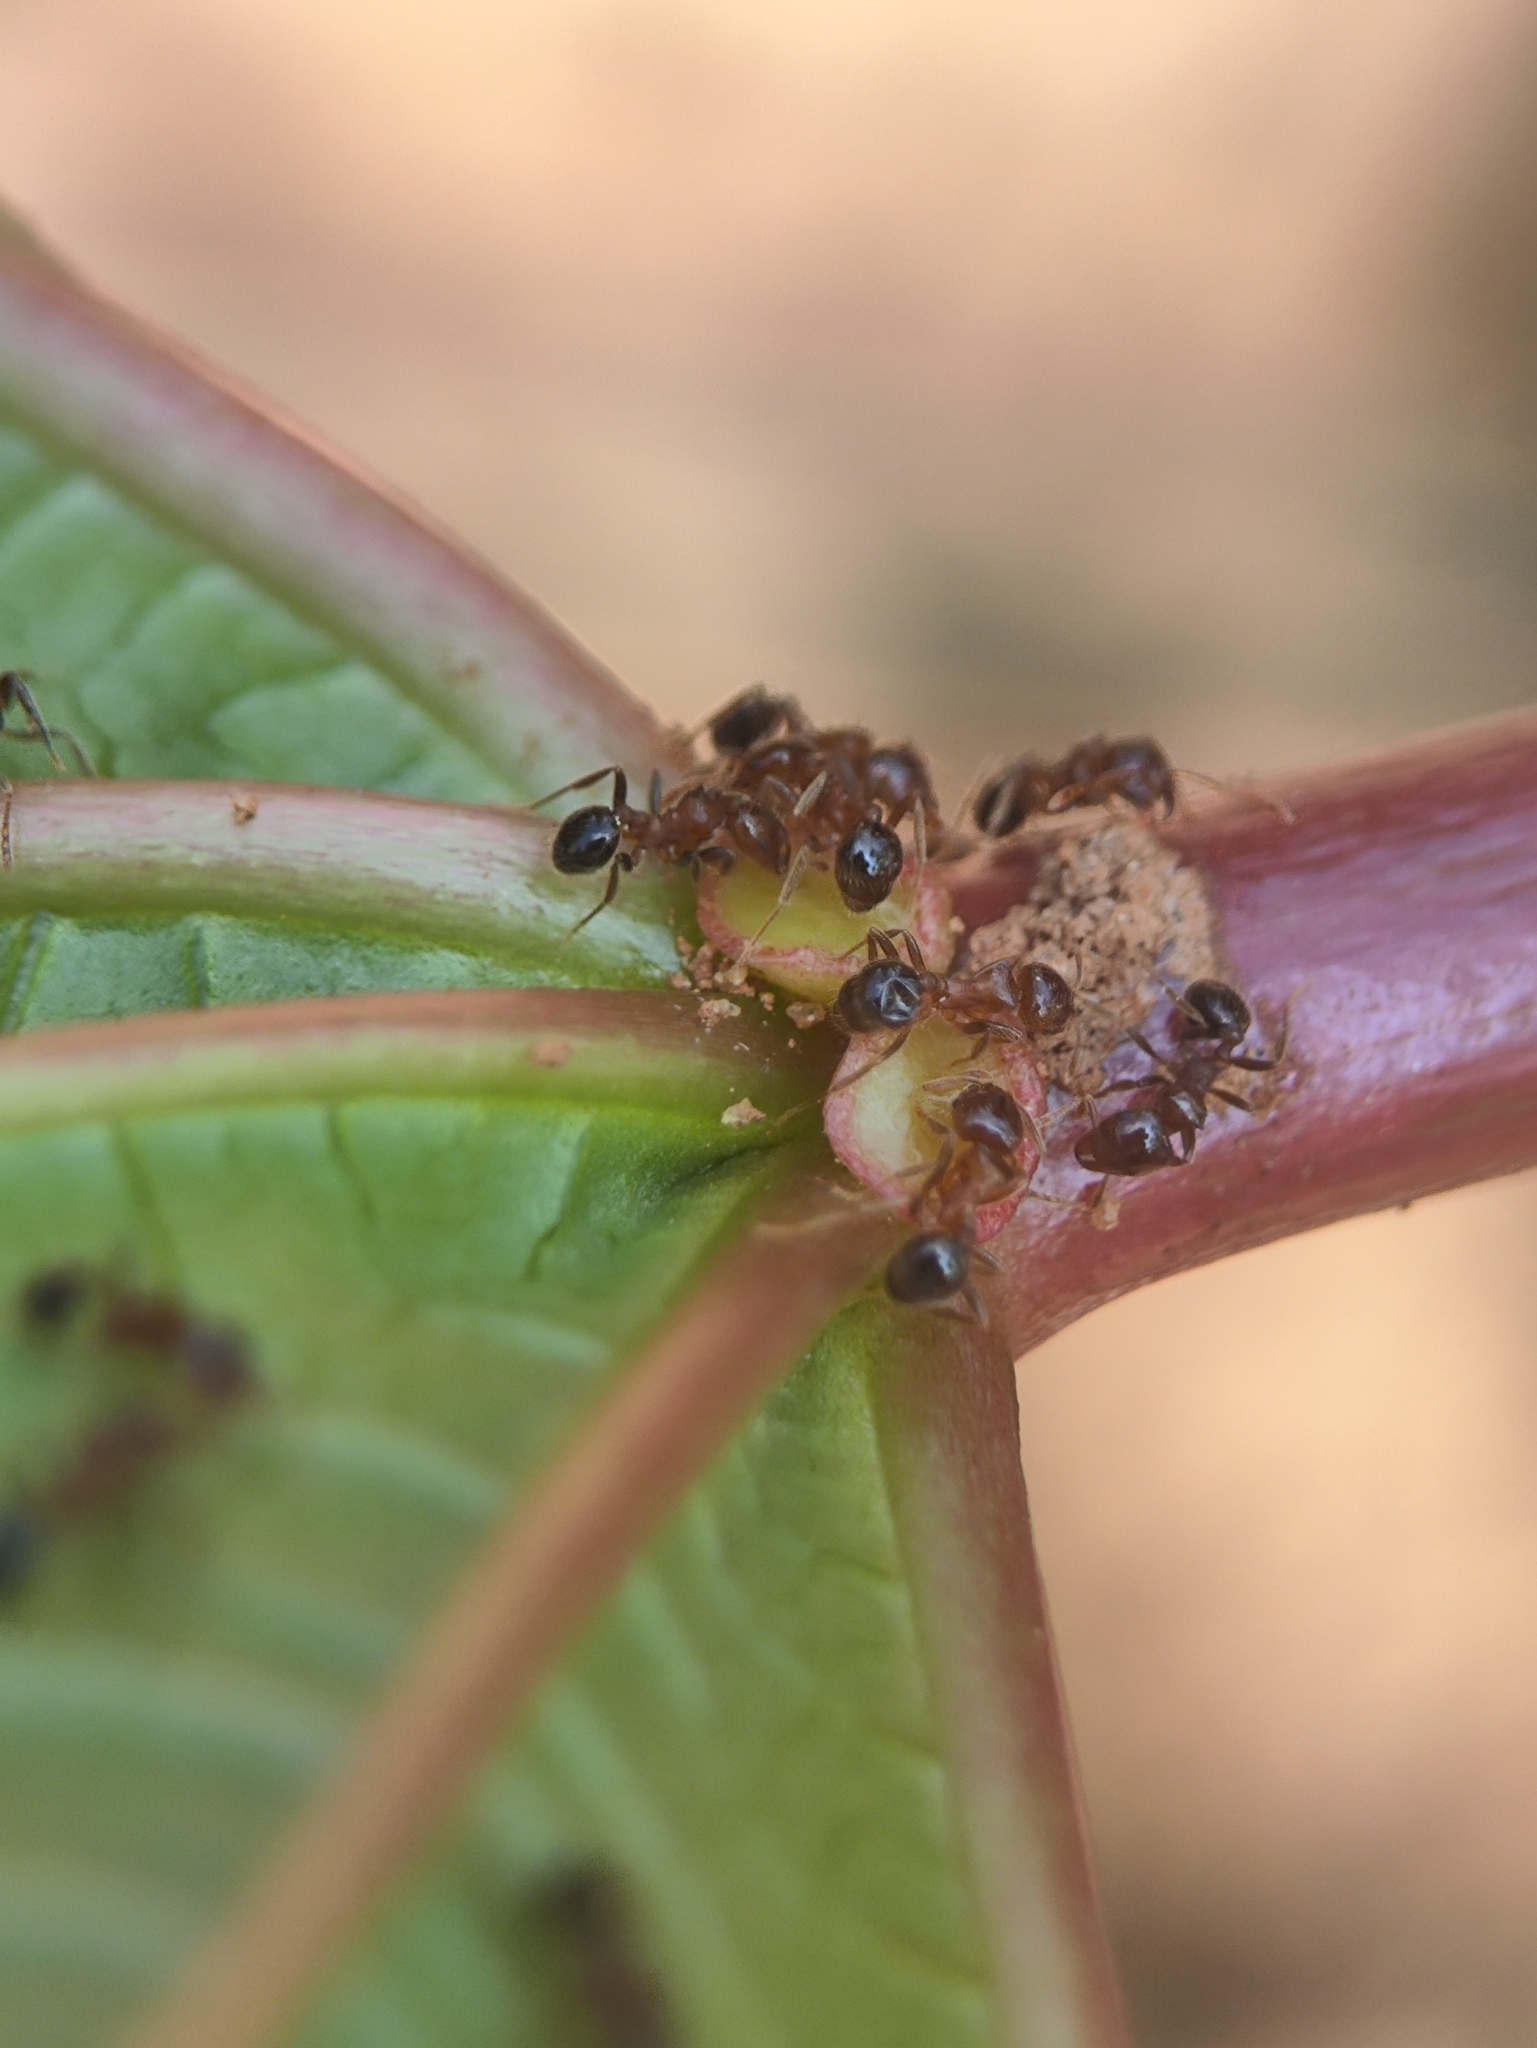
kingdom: Animalia
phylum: Arthropoda
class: Insecta
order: Hymenoptera
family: Formicidae
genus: Lophomyrmex
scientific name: Lophomyrmex quadrispinosus
